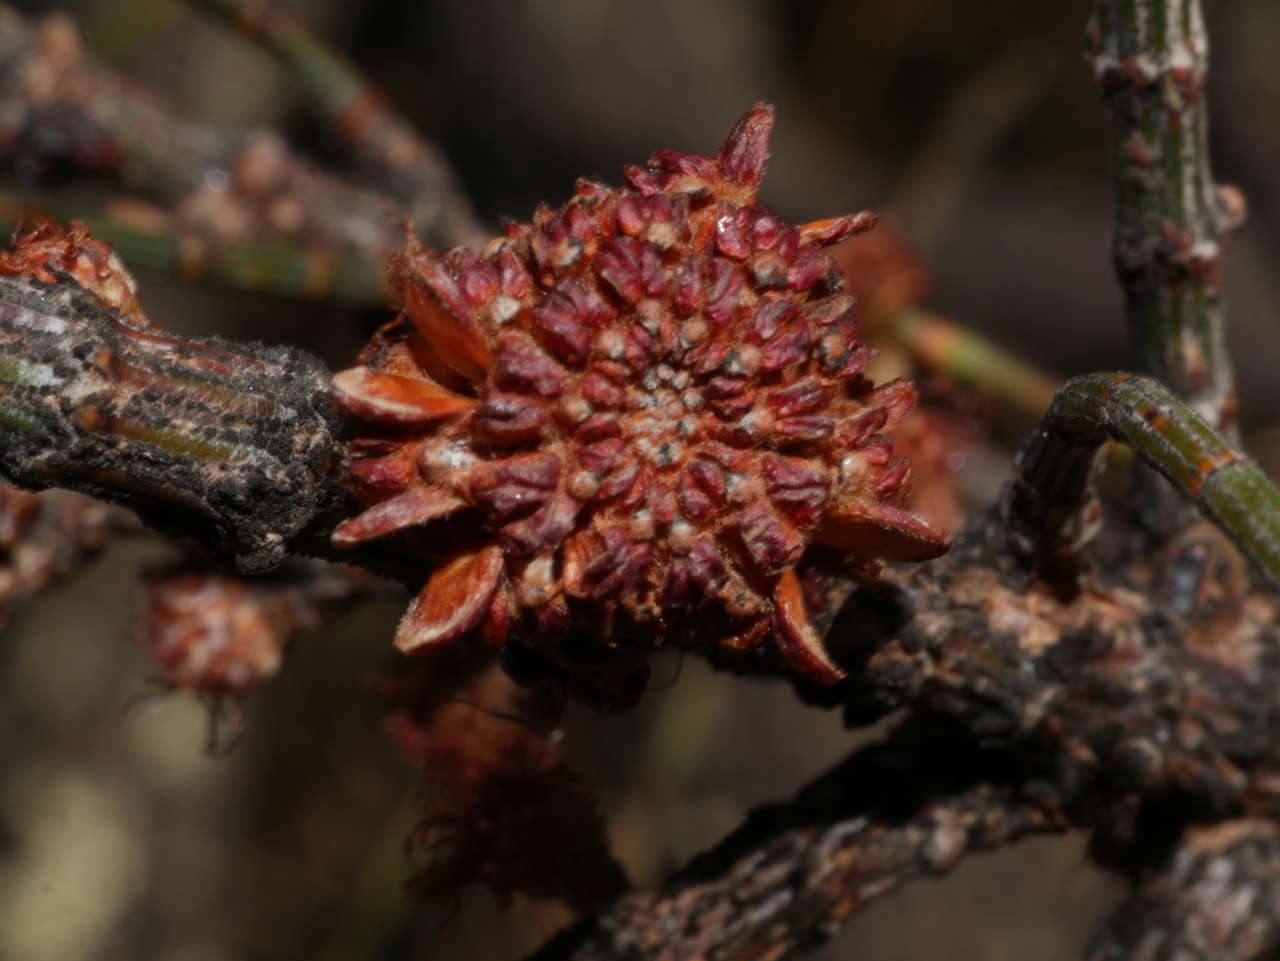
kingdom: Plantae
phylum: Tracheophyta
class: Magnoliopsida
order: Fagales
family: Casuarinaceae
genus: Allocasuarina
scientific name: Allocasuarina luehmannii
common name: Bull-oak
